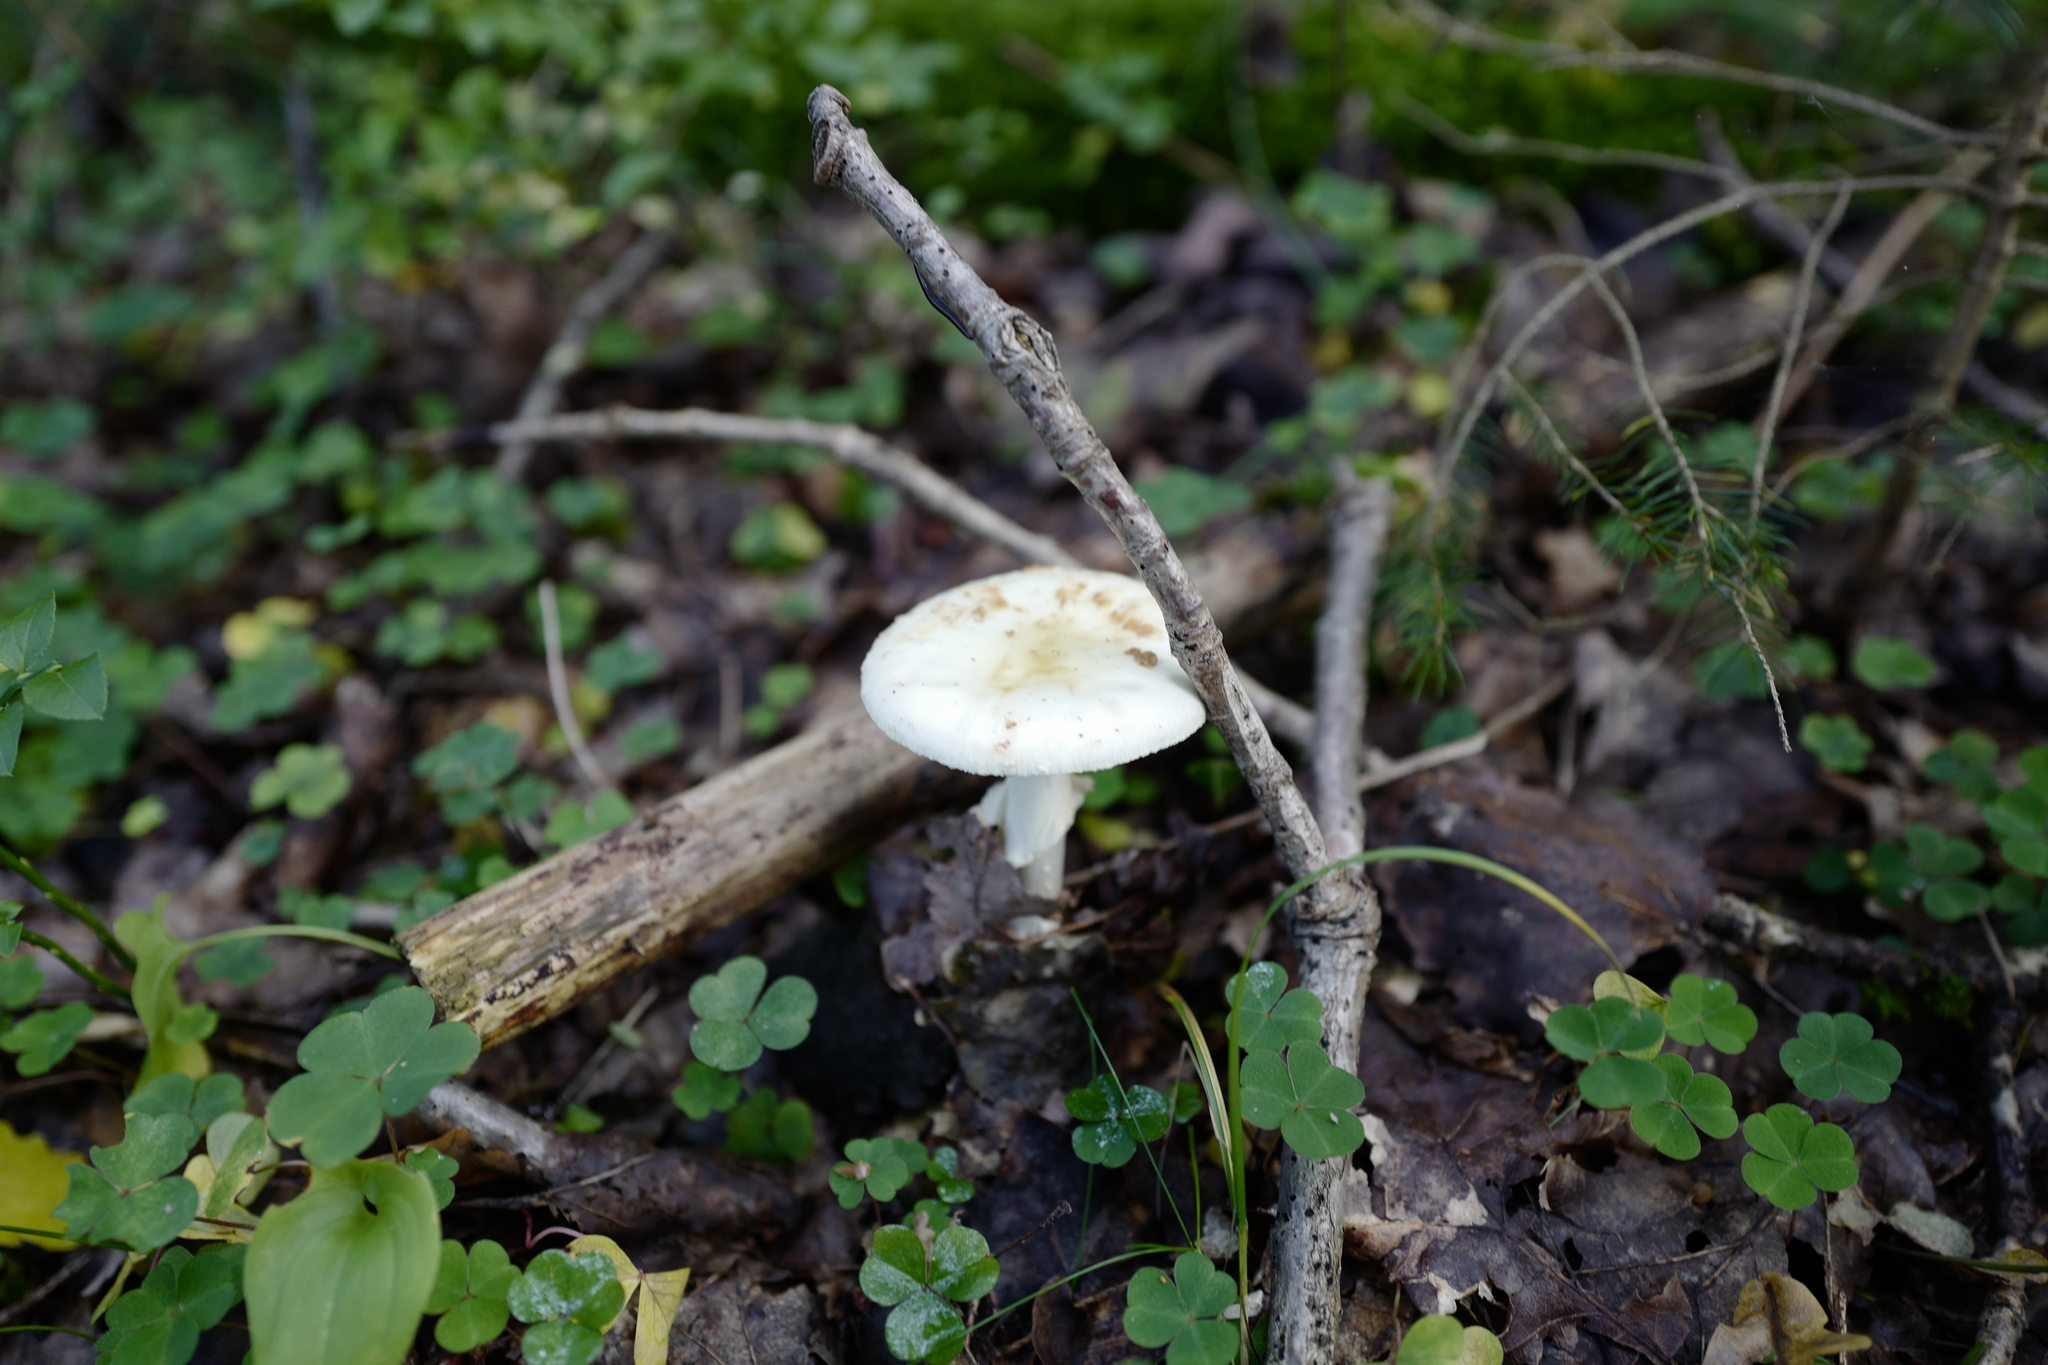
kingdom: Fungi
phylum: Basidiomycota
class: Agaricomycetes
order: Agaricales
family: Amanitaceae
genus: Amanita
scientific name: Amanita citrina
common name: False death-cap
